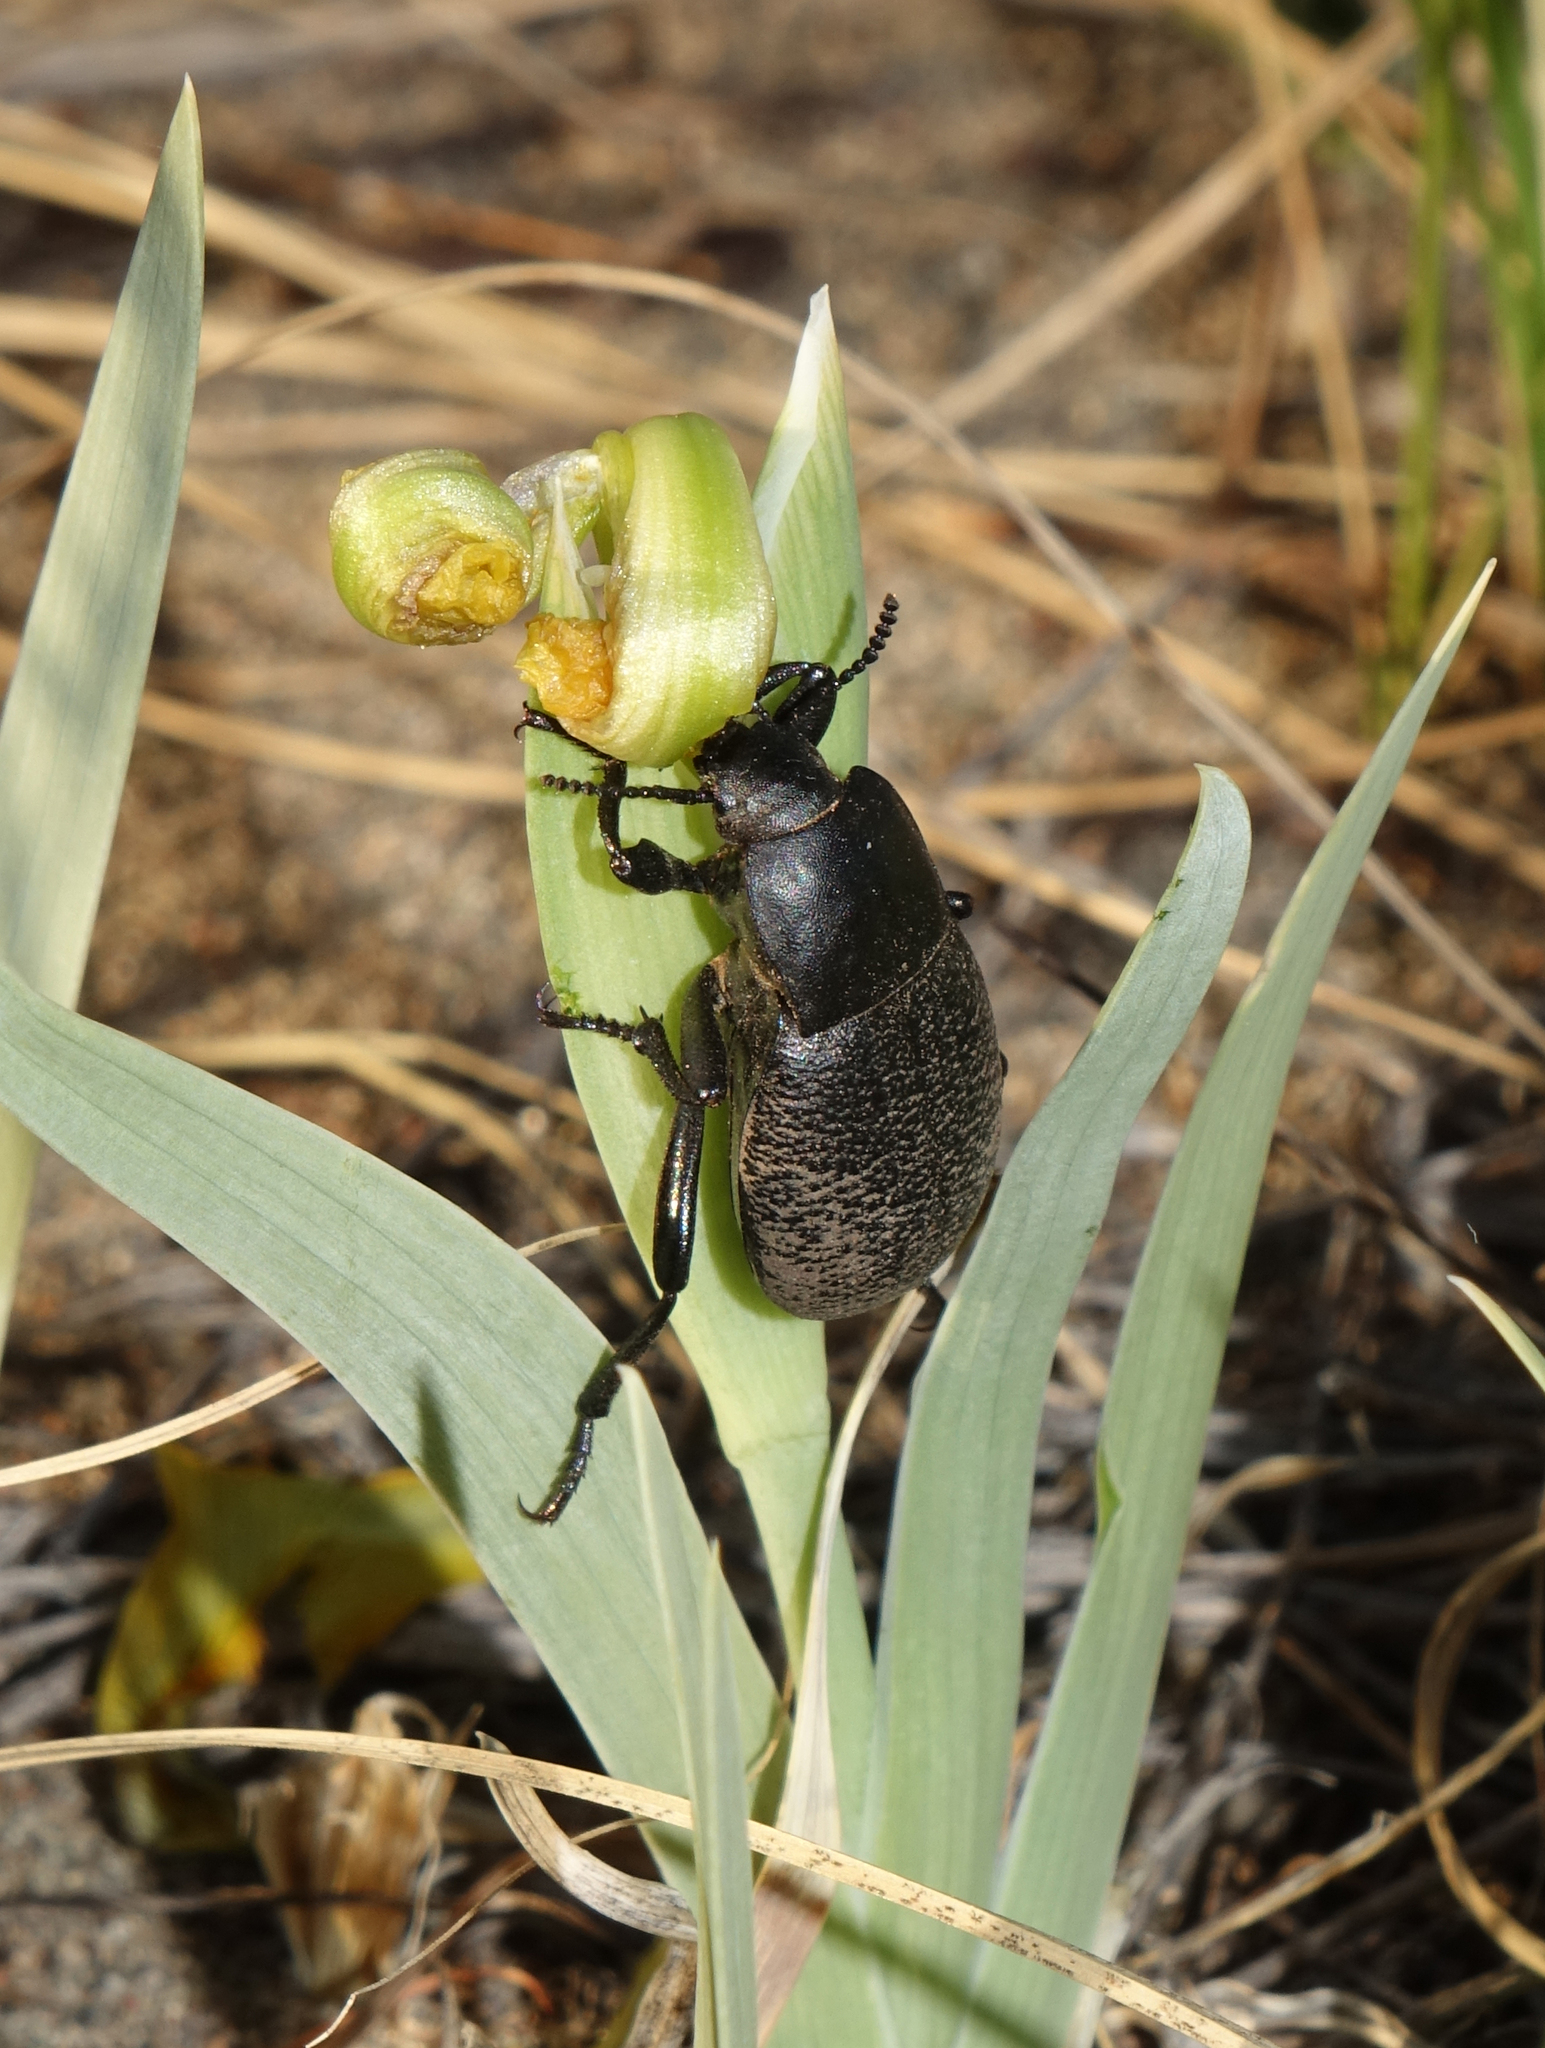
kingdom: Animalia
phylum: Arthropoda
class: Insecta
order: Coleoptera
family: Tenebrionidae
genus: Blaps
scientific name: Blaps
